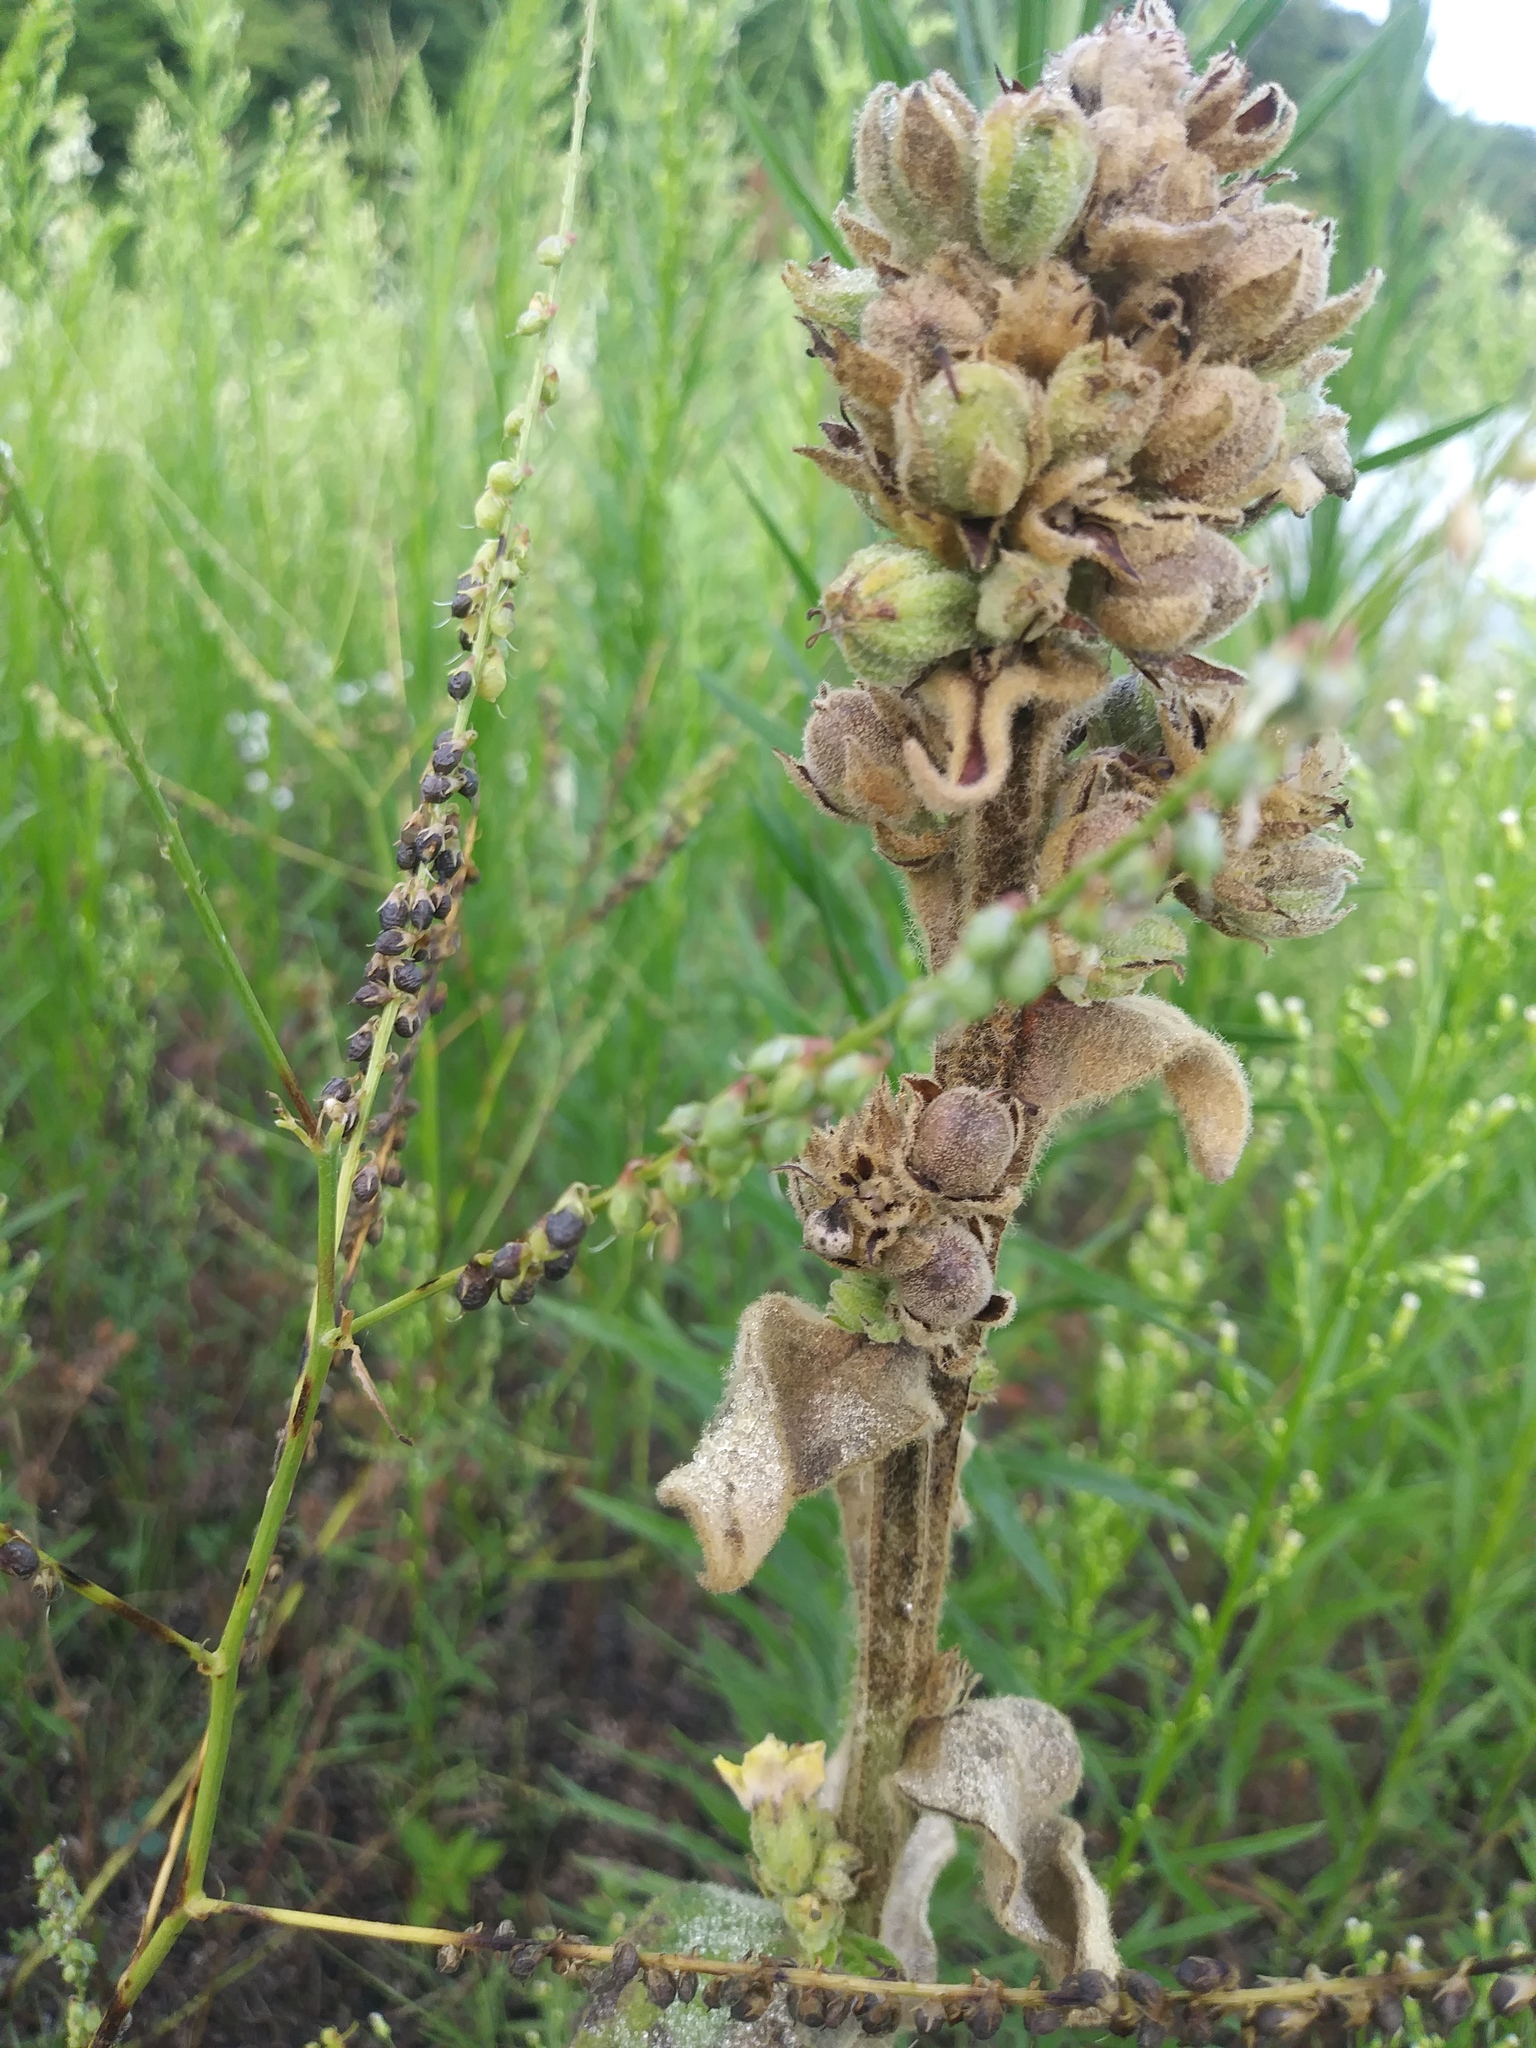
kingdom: Plantae
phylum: Tracheophyta
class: Magnoliopsida
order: Lamiales
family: Scrophulariaceae
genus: Verbascum
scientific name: Verbascum thapsus
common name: Common mullein
